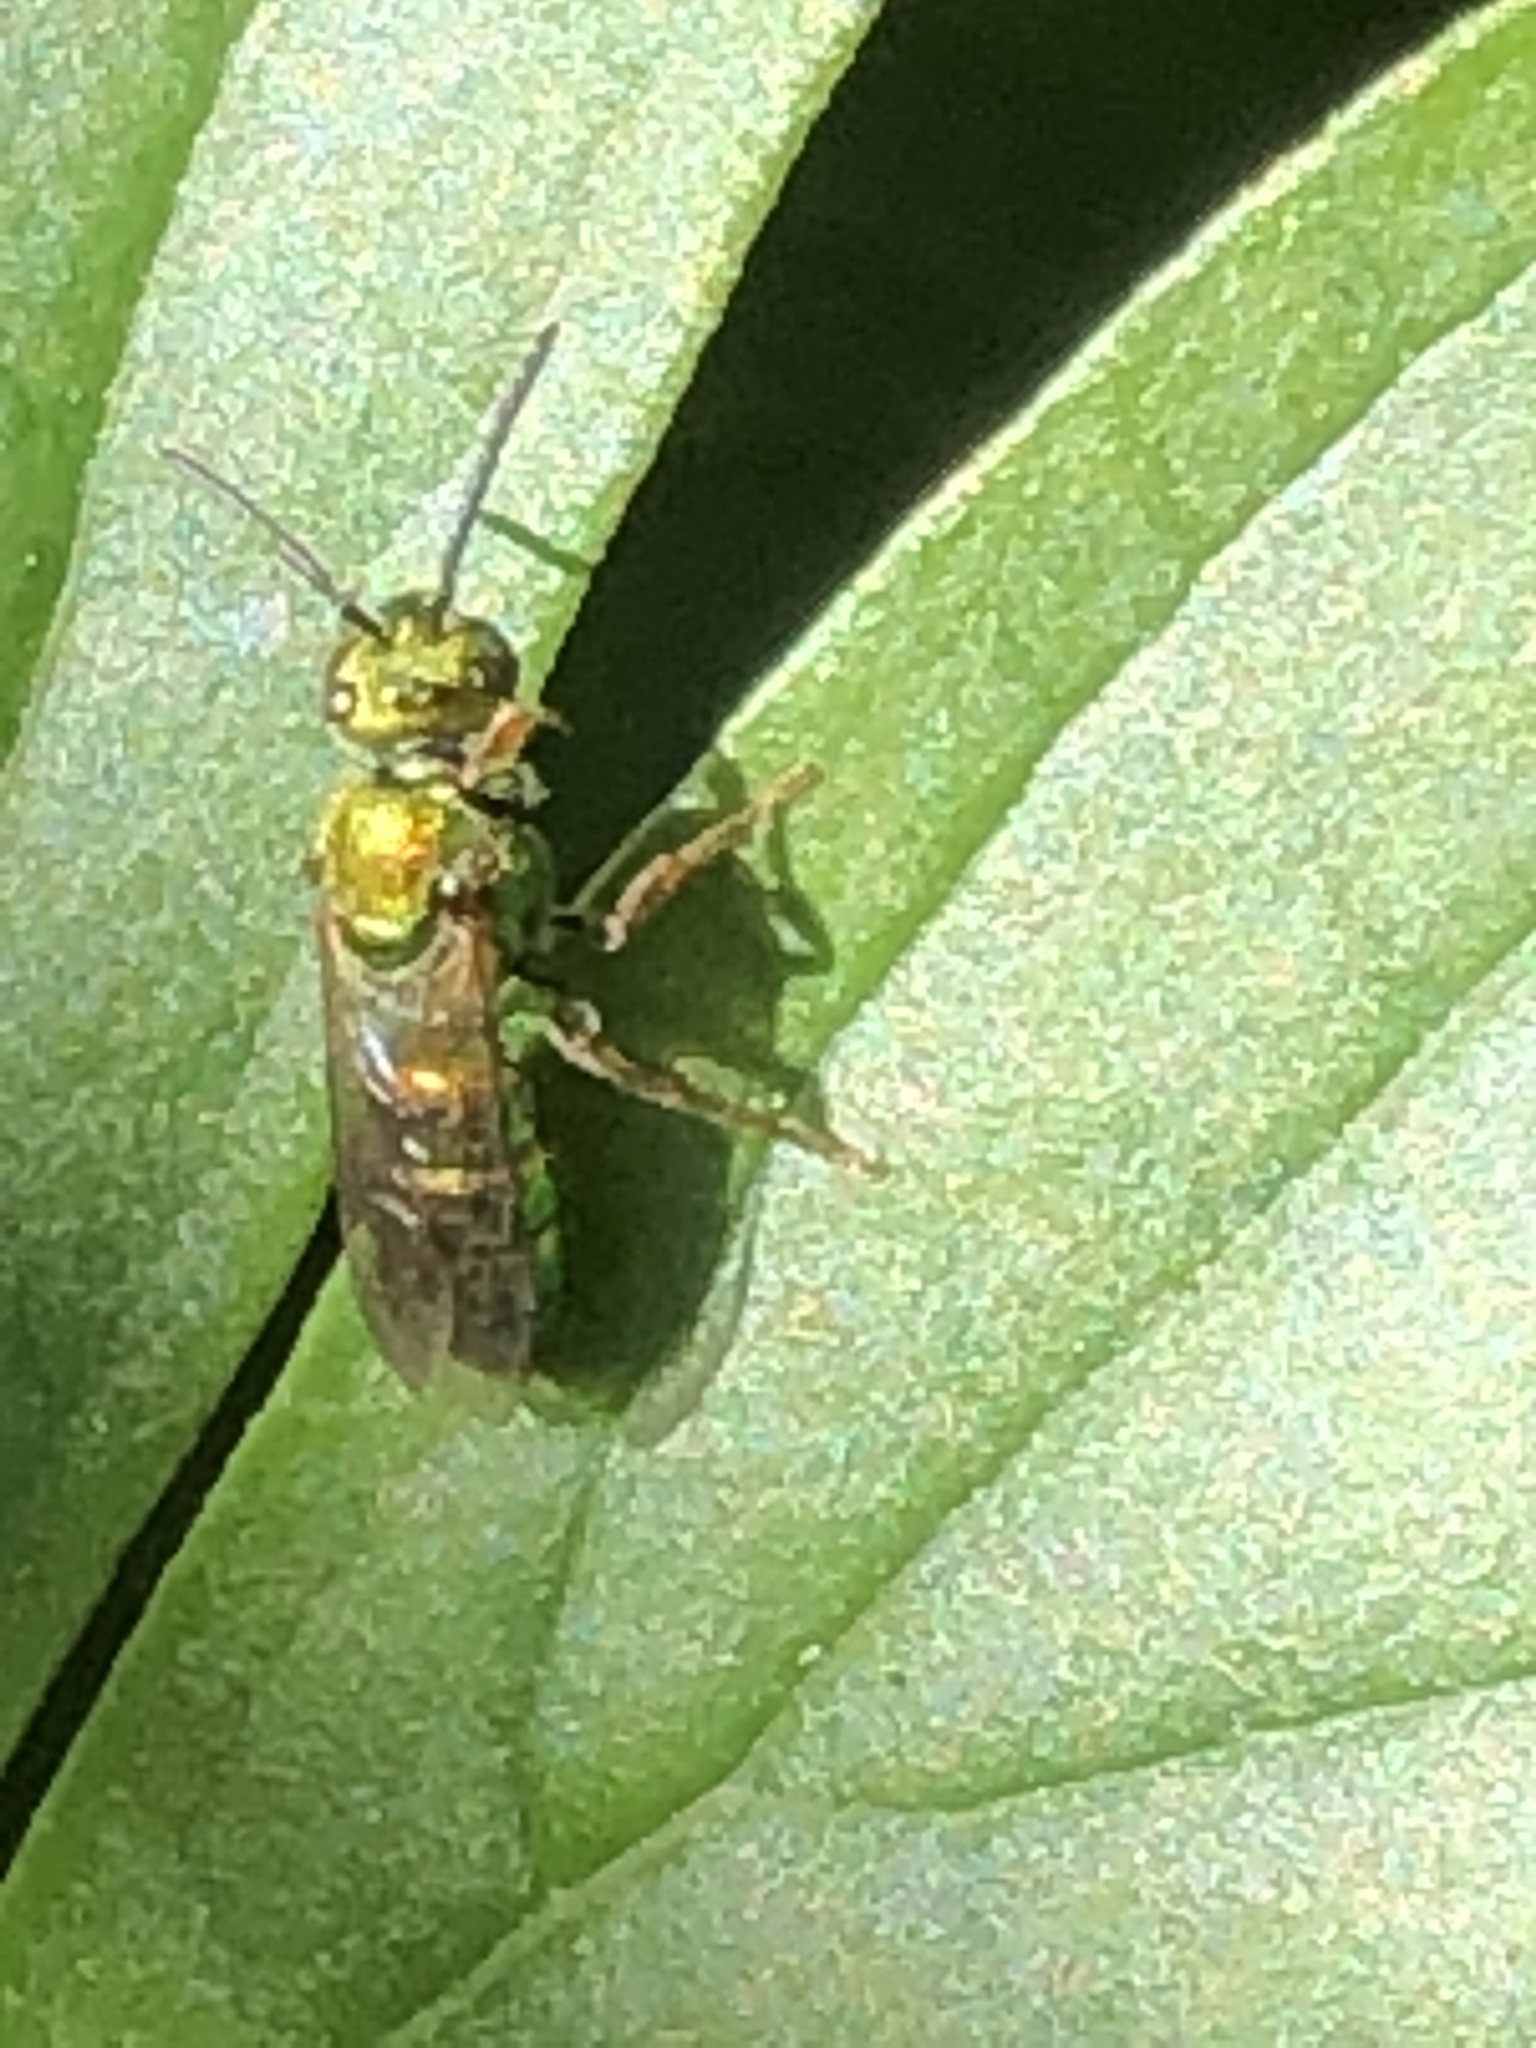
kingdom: Animalia
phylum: Arthropoda
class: Insecta
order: Hymenoptera
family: Halictidae
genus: Augochlora
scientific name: Augochlora pura
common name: Pure green sweat bee
